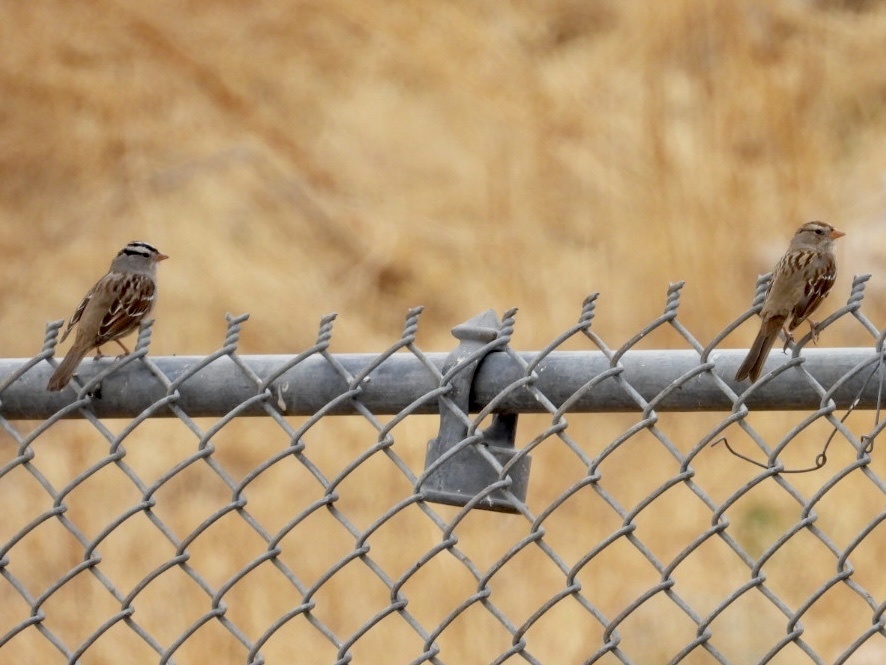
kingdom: Animalia
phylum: Chordata
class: Aves
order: Passeriformes
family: Passerellidae
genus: Zonotrichia
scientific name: Zonotrichia leucophrys
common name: White-crowned sparrow
